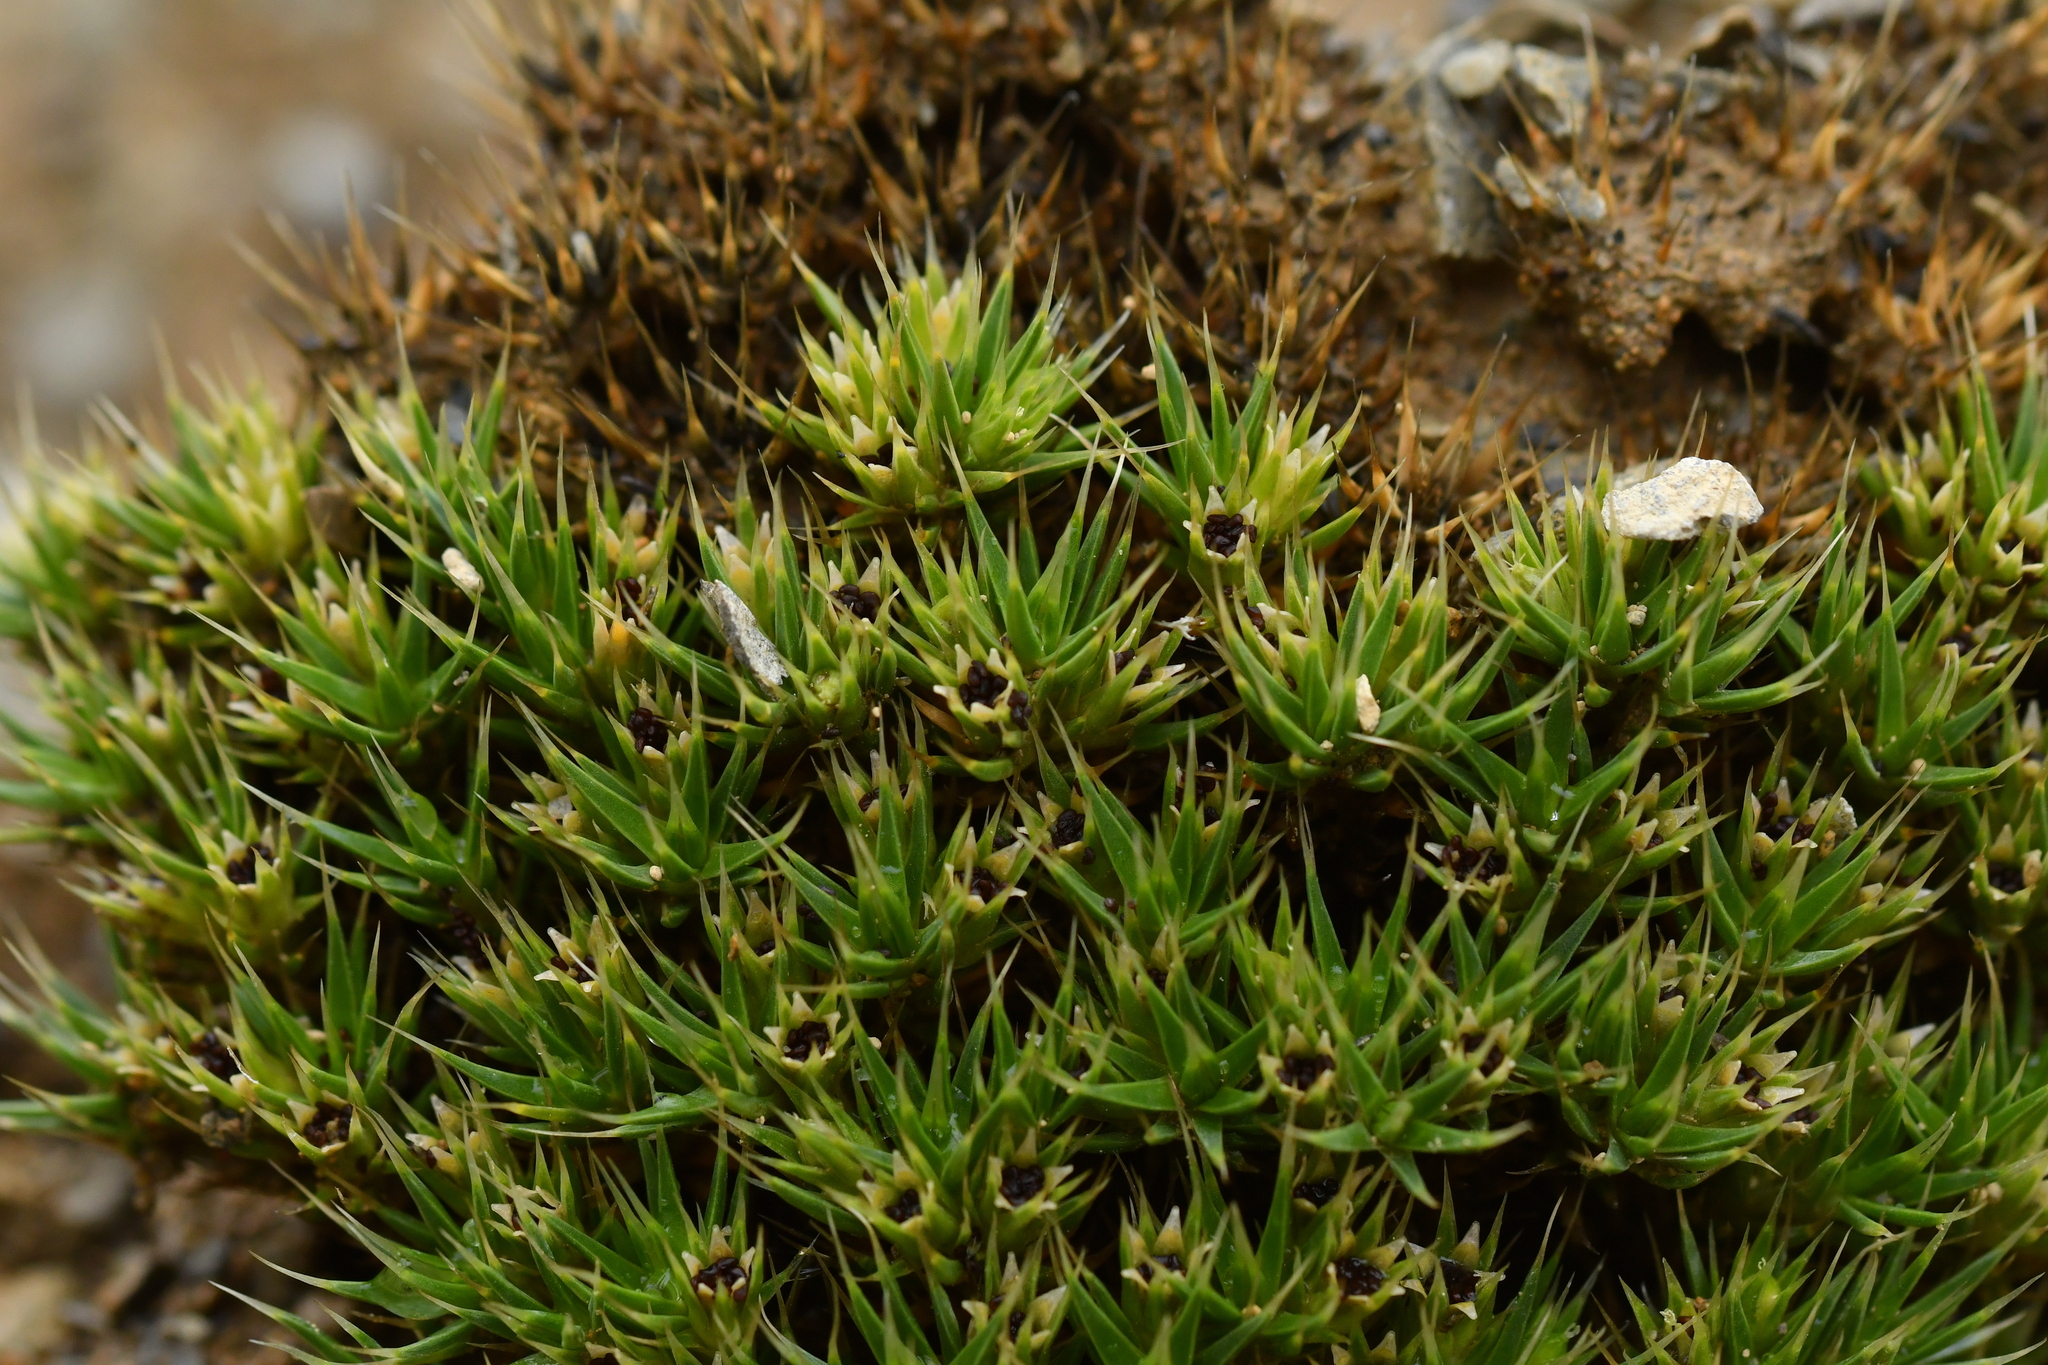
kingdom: Plantae
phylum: Tracheophyta
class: Magnoliopsida
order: Caryophyllales
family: Caryophyllaceae
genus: Colobanthus
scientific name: Colobanthus acicularis
